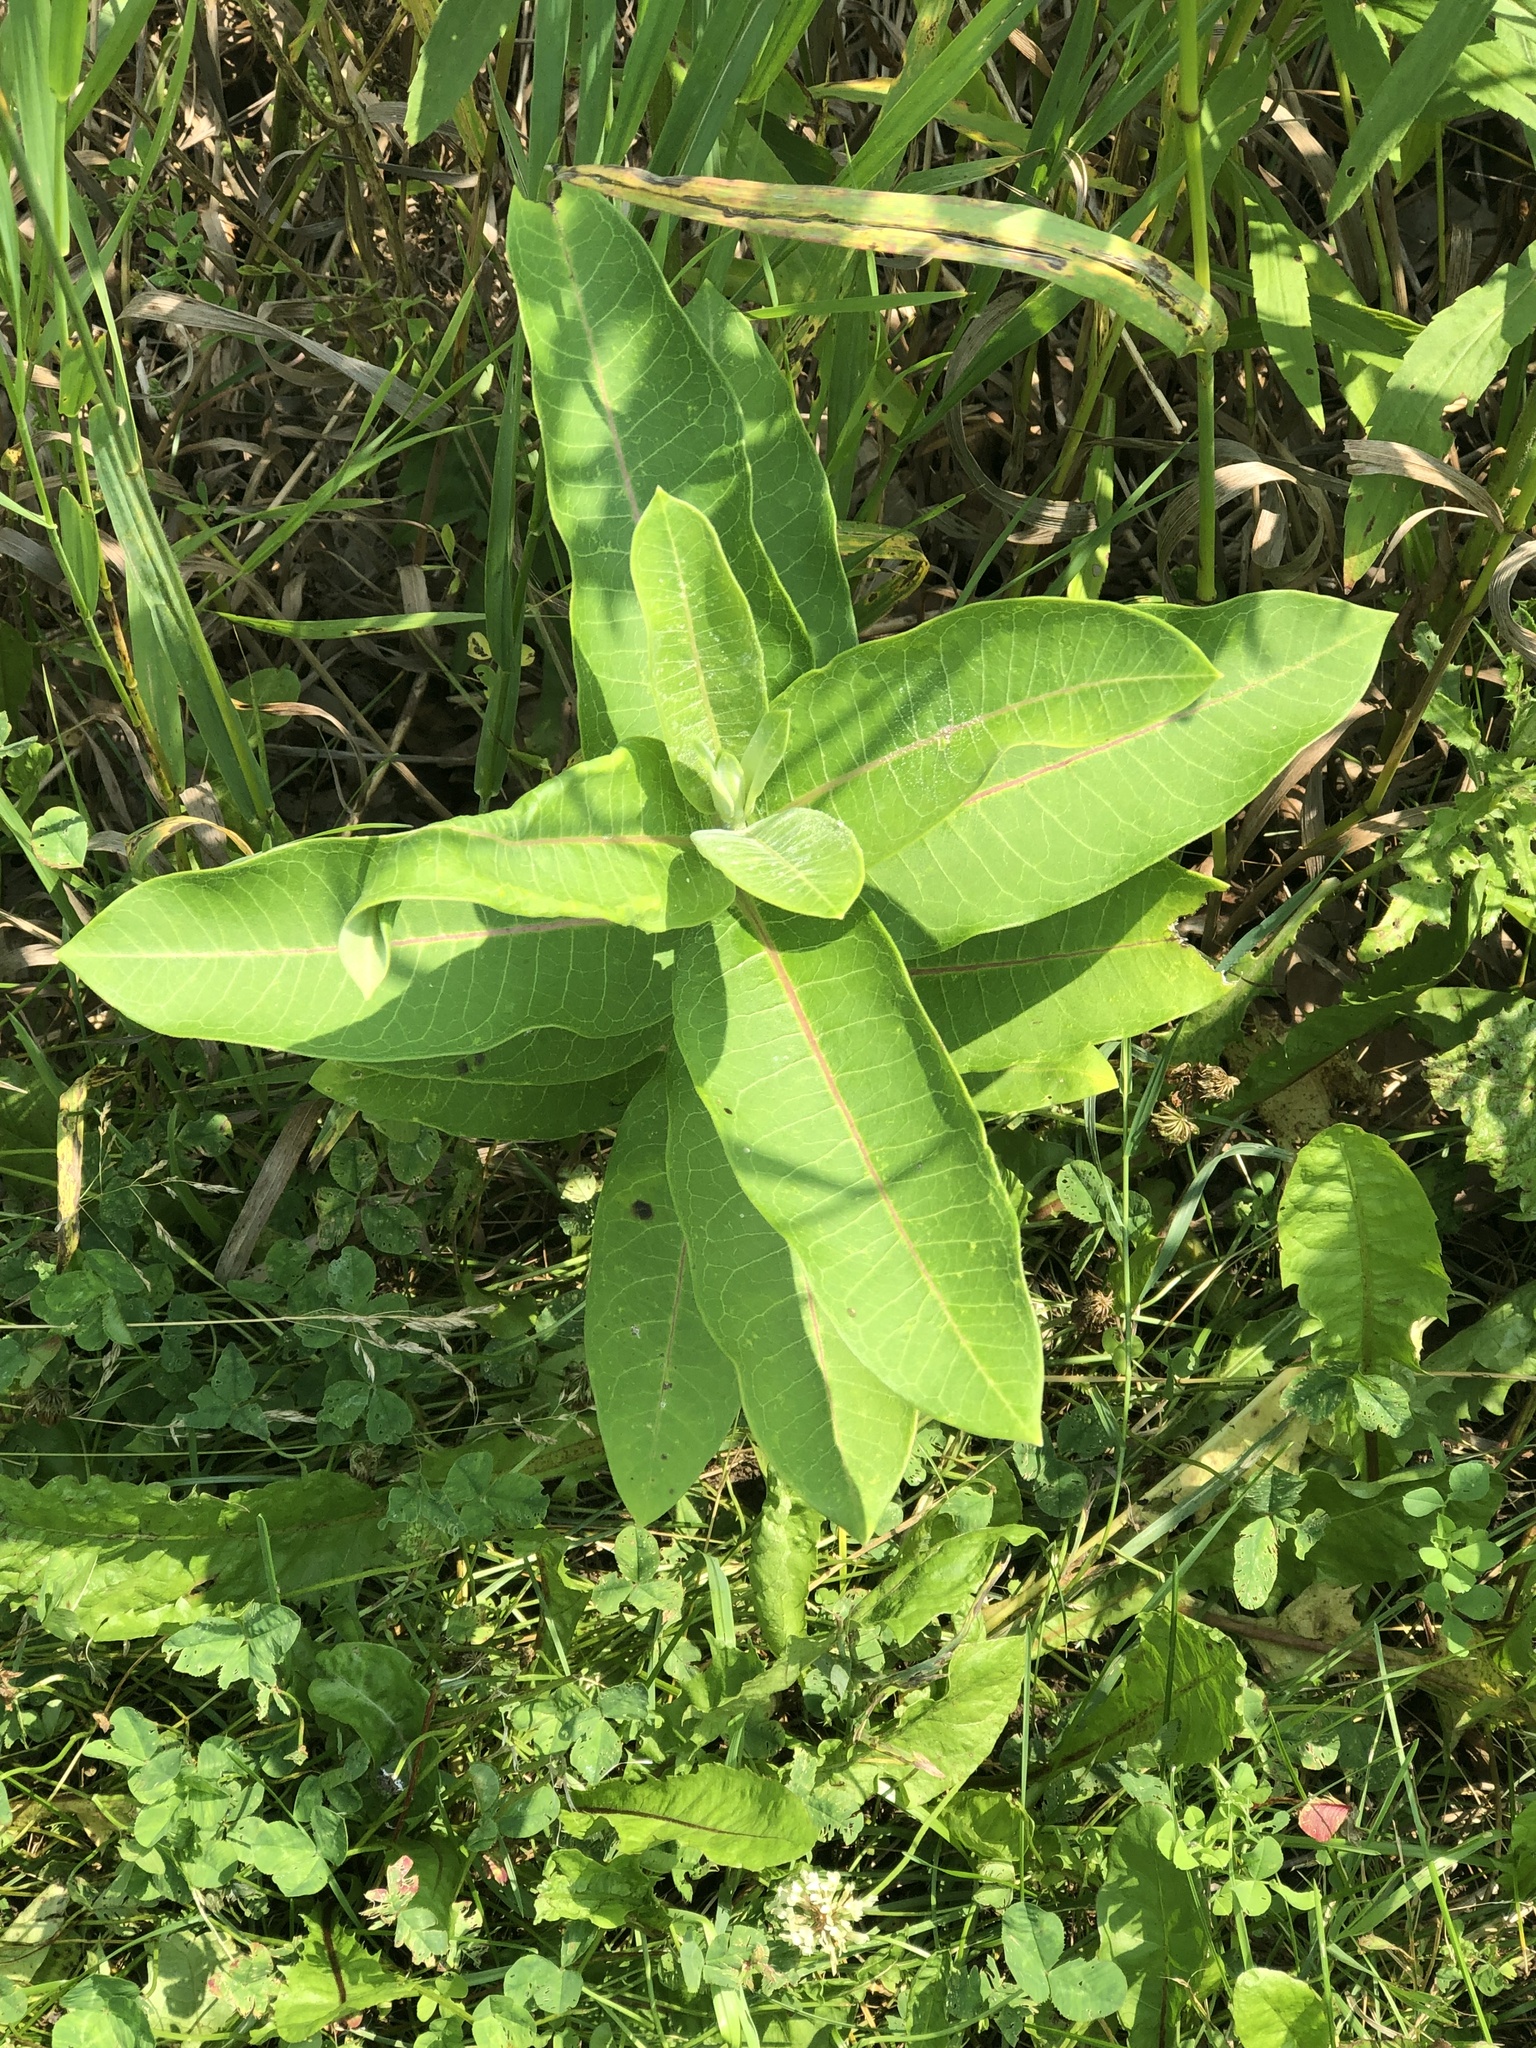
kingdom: Plantae
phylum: Tracheophyta
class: Magnoliopsida
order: Gentianales
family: Apocynaceae
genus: Asclepias
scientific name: Asclepias syriaca
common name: Common milkweed
